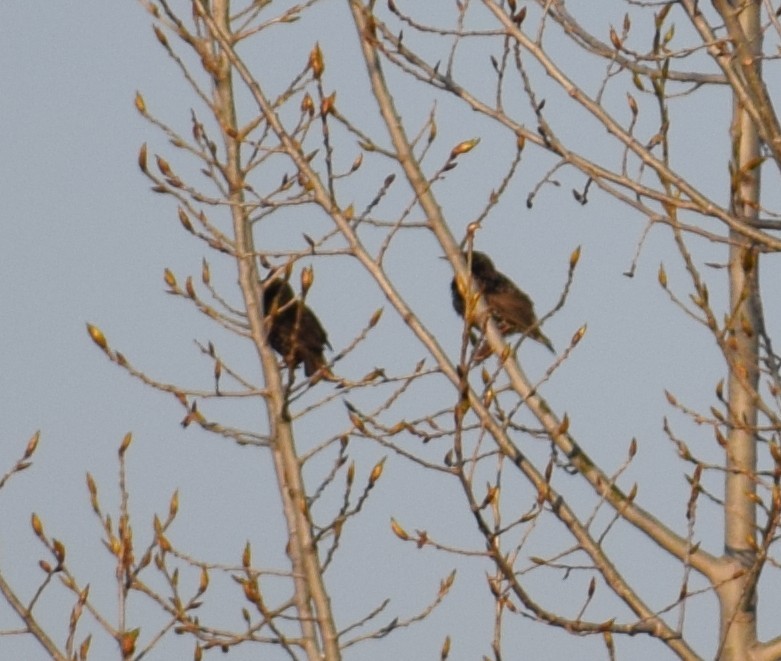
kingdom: Animalia
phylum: Chordata
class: Aves
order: Passeriformes
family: Sturnidae
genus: Sturnus
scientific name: Sturnus vulgaris
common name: Common starling
